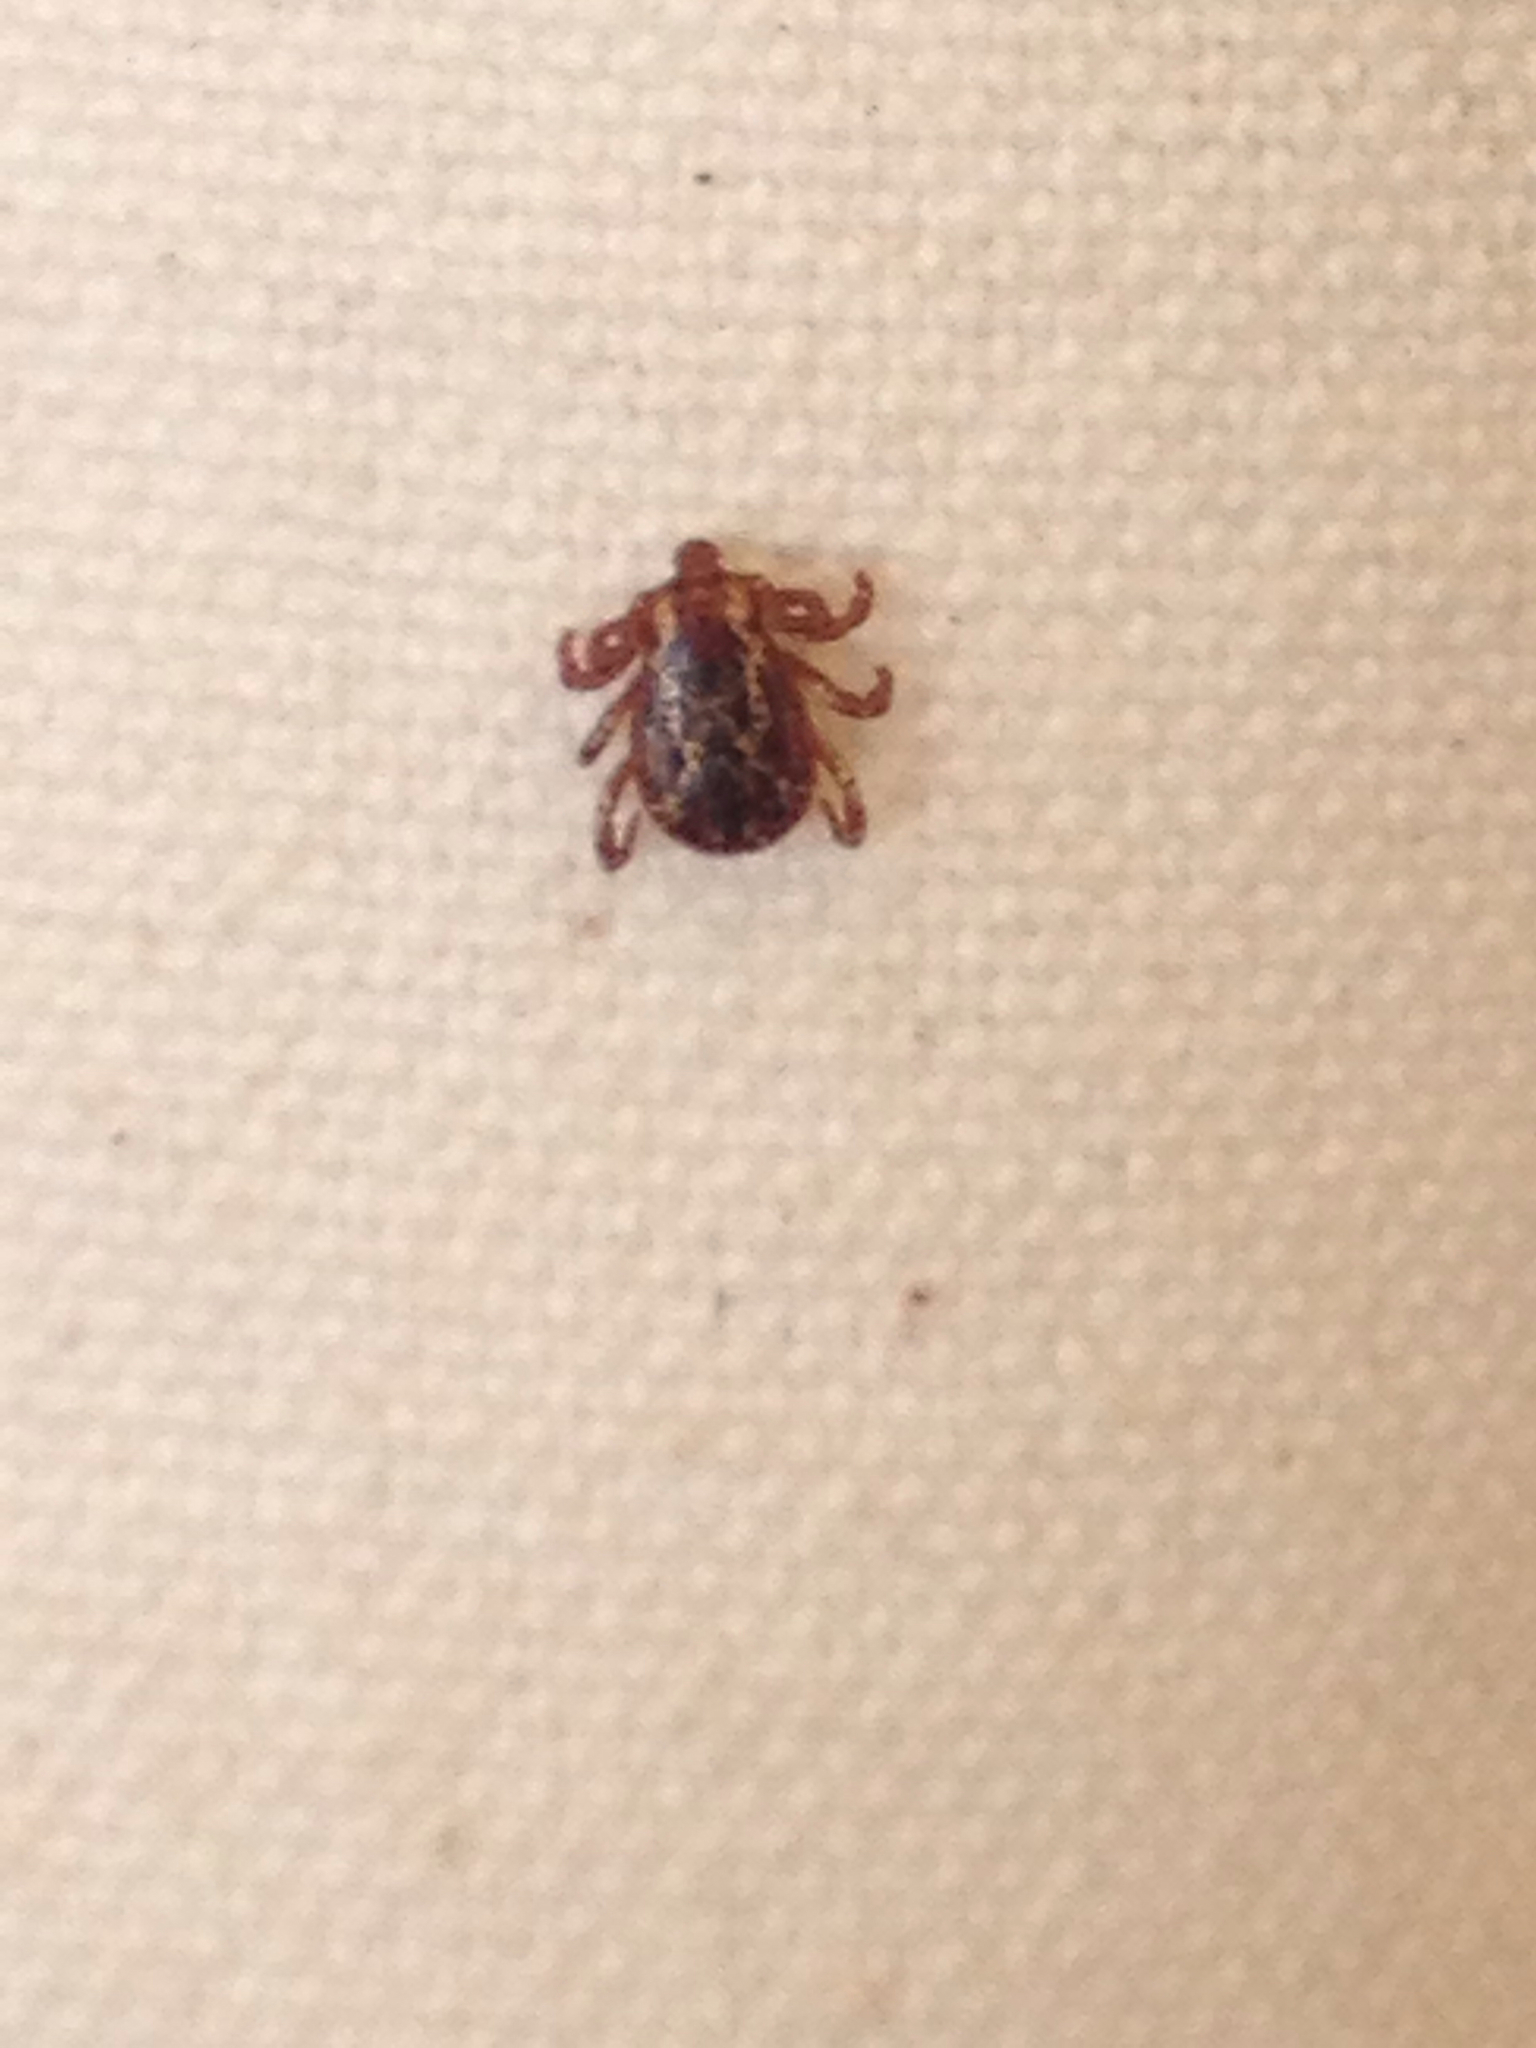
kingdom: Animalia
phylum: Arthropoda
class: Arachnida
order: Ixodida
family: Ixodidae
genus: Dermacentor
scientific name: Dermacentor variabilis
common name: American dog tick
